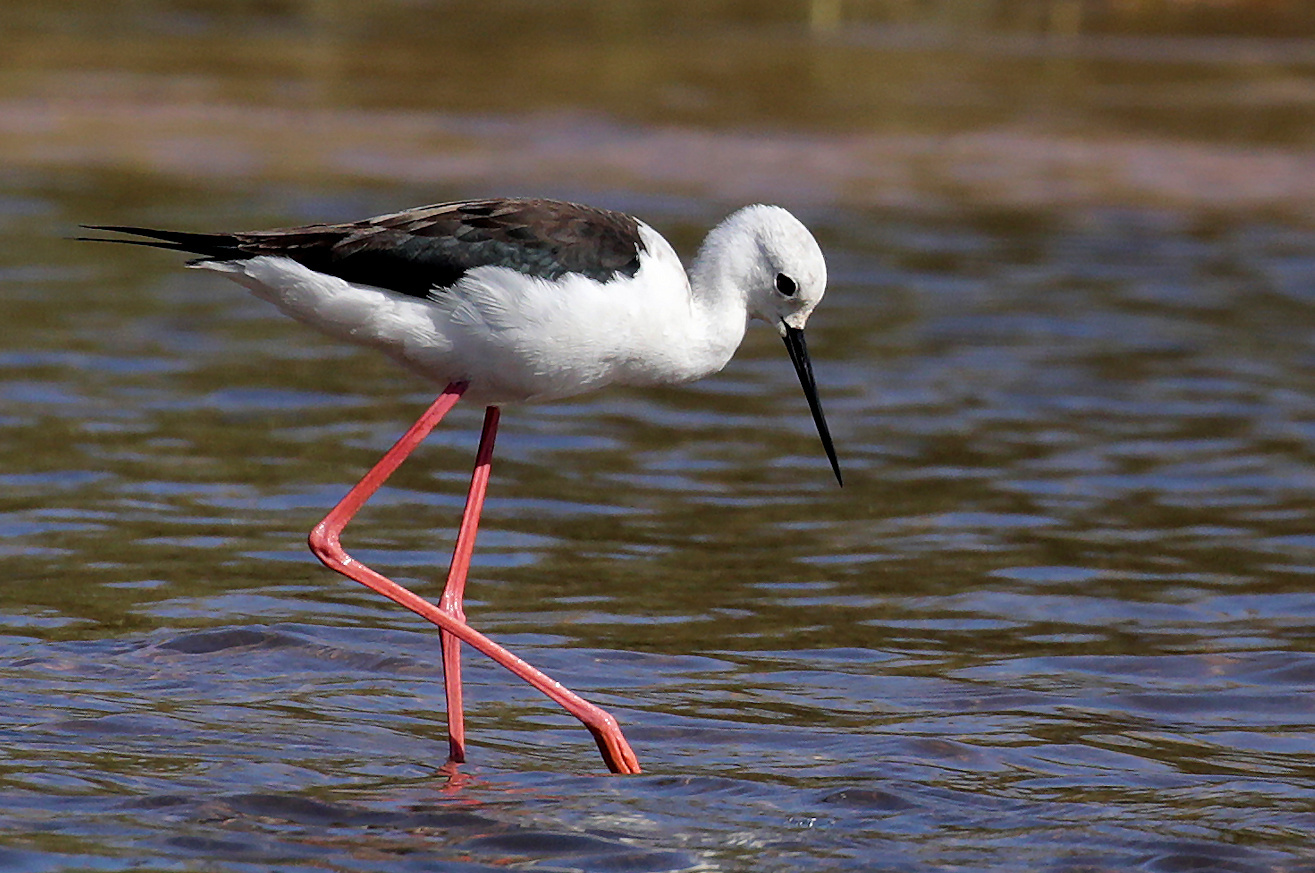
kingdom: Animalia
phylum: Chordata
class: Aves
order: Charadriiformes
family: Recurvirostridae
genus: Himantopus
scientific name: Himantopus himantopus
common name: Black-winged stilt
